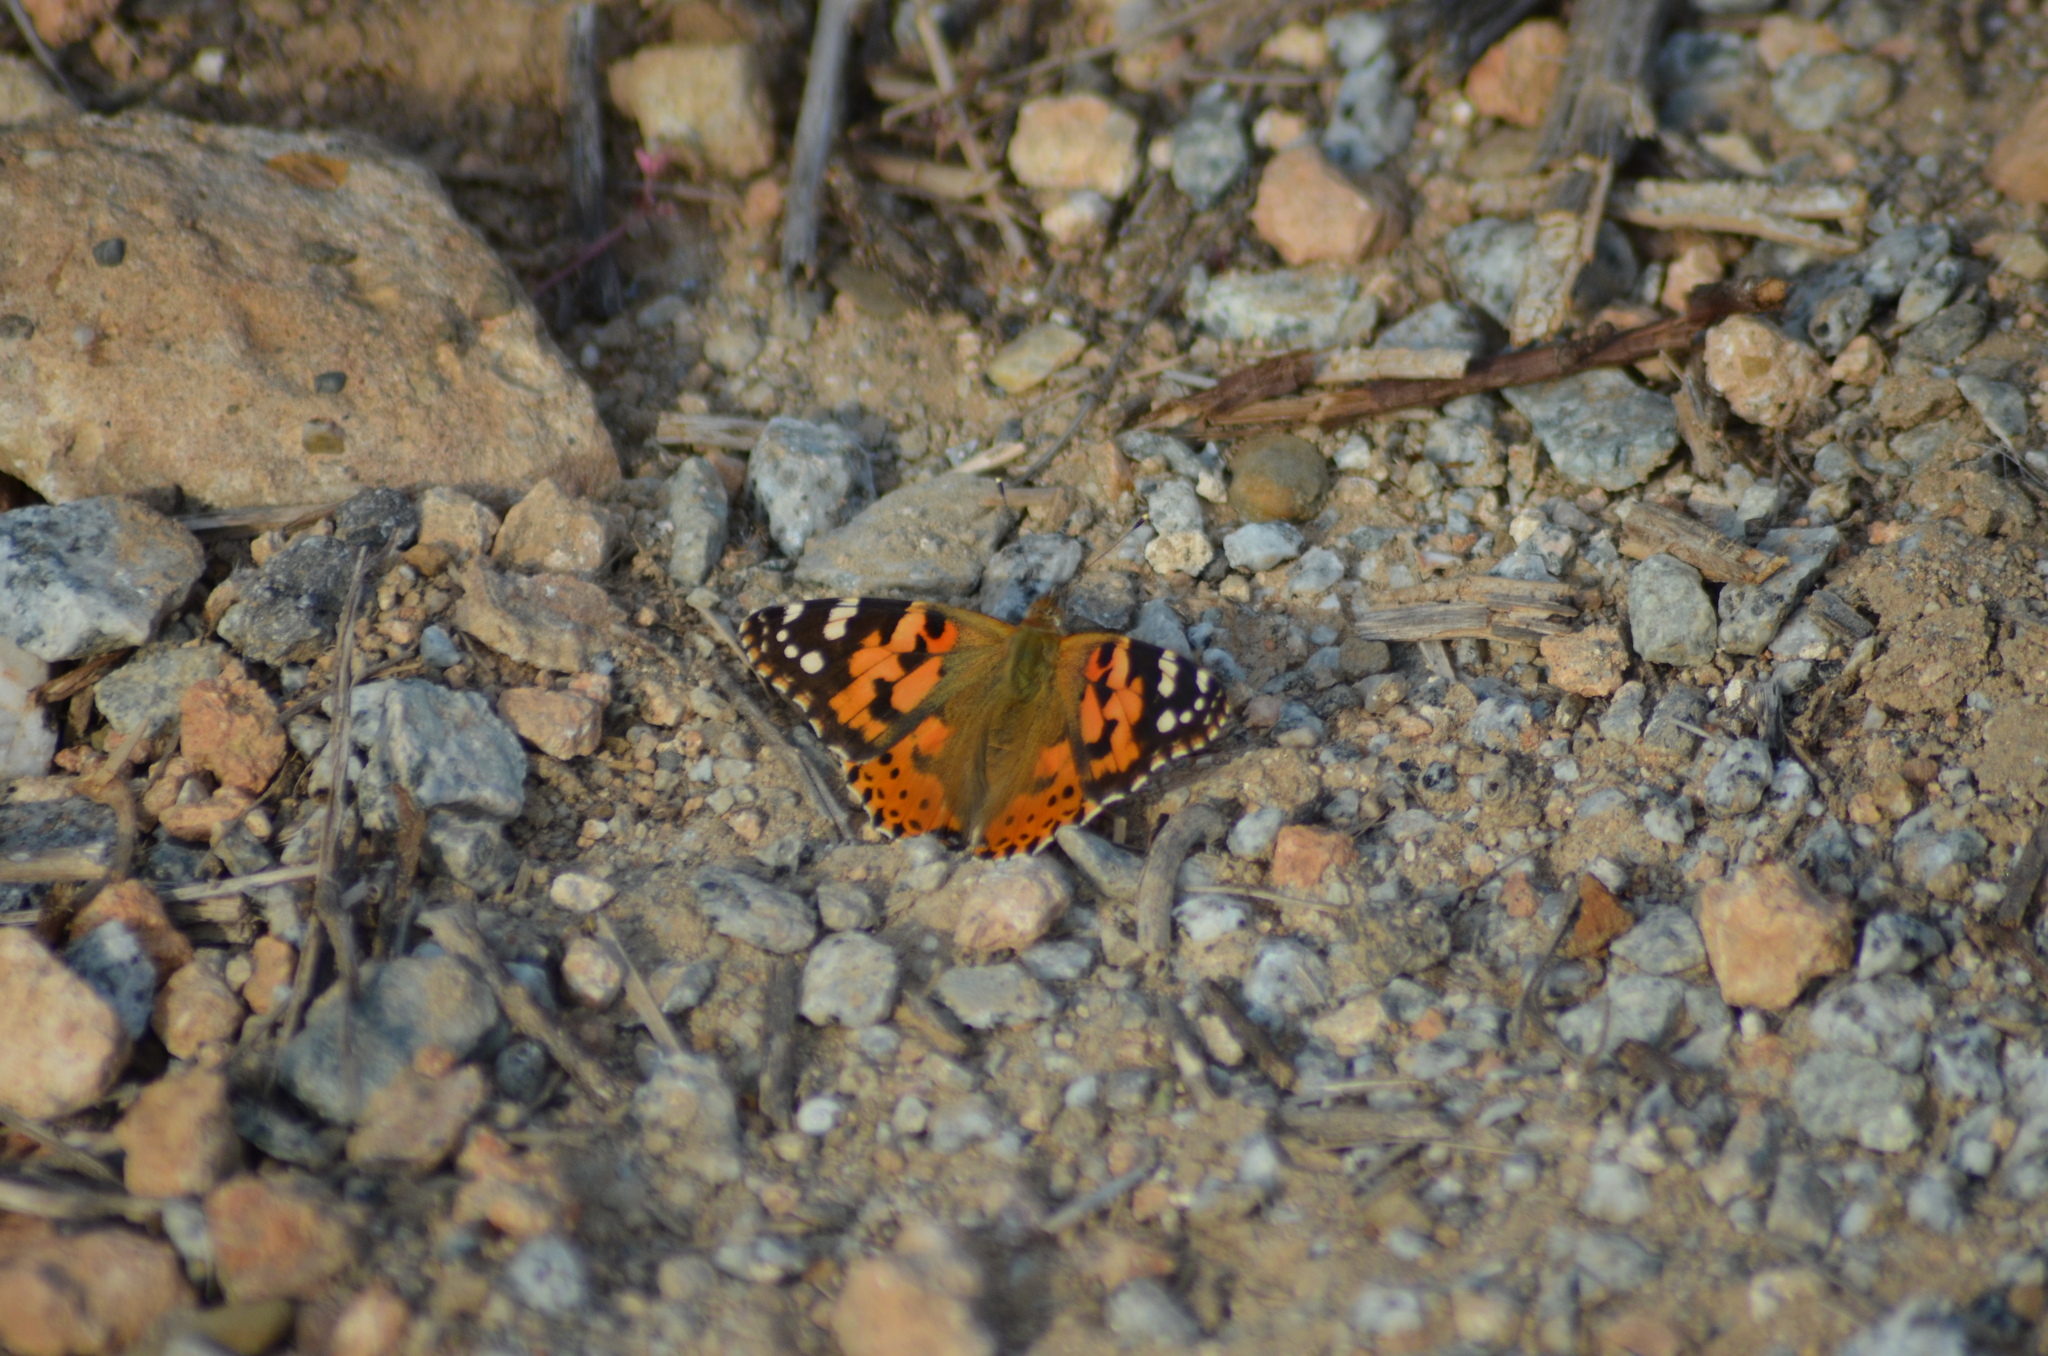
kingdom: Animalia
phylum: Arthropoda
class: Insecta
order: Lepidoptera
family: Nymphalidae
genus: Vanessa
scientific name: Vanessa cardui
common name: Painted lady
